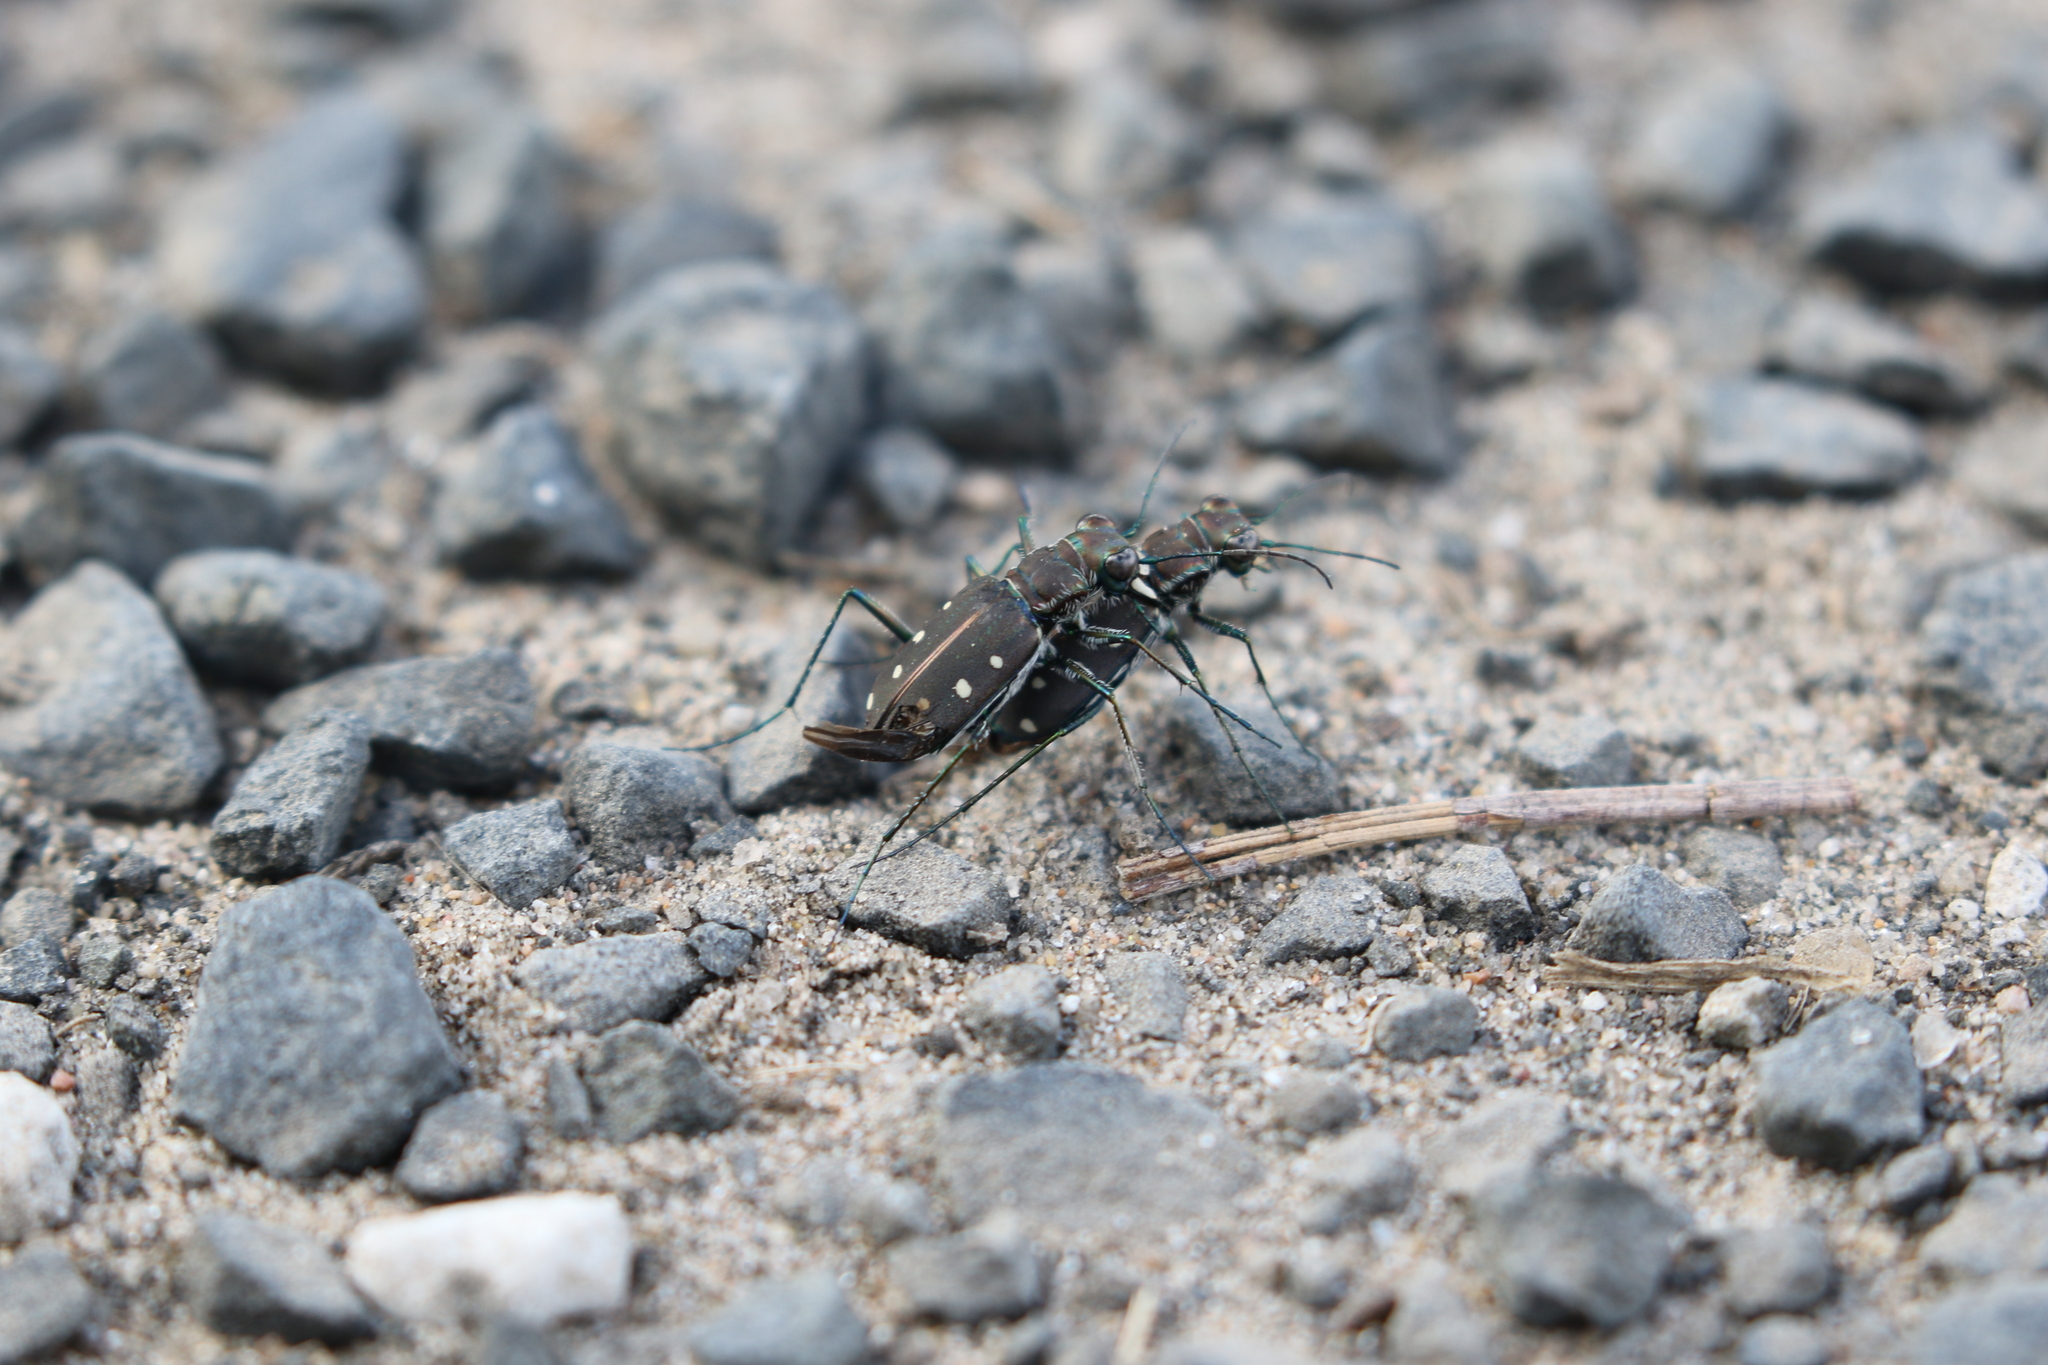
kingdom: Animalia
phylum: Arthropoda
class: Insecta
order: Coleoptera
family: Carabidae
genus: Cicindela
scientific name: Cicindela ocellata
